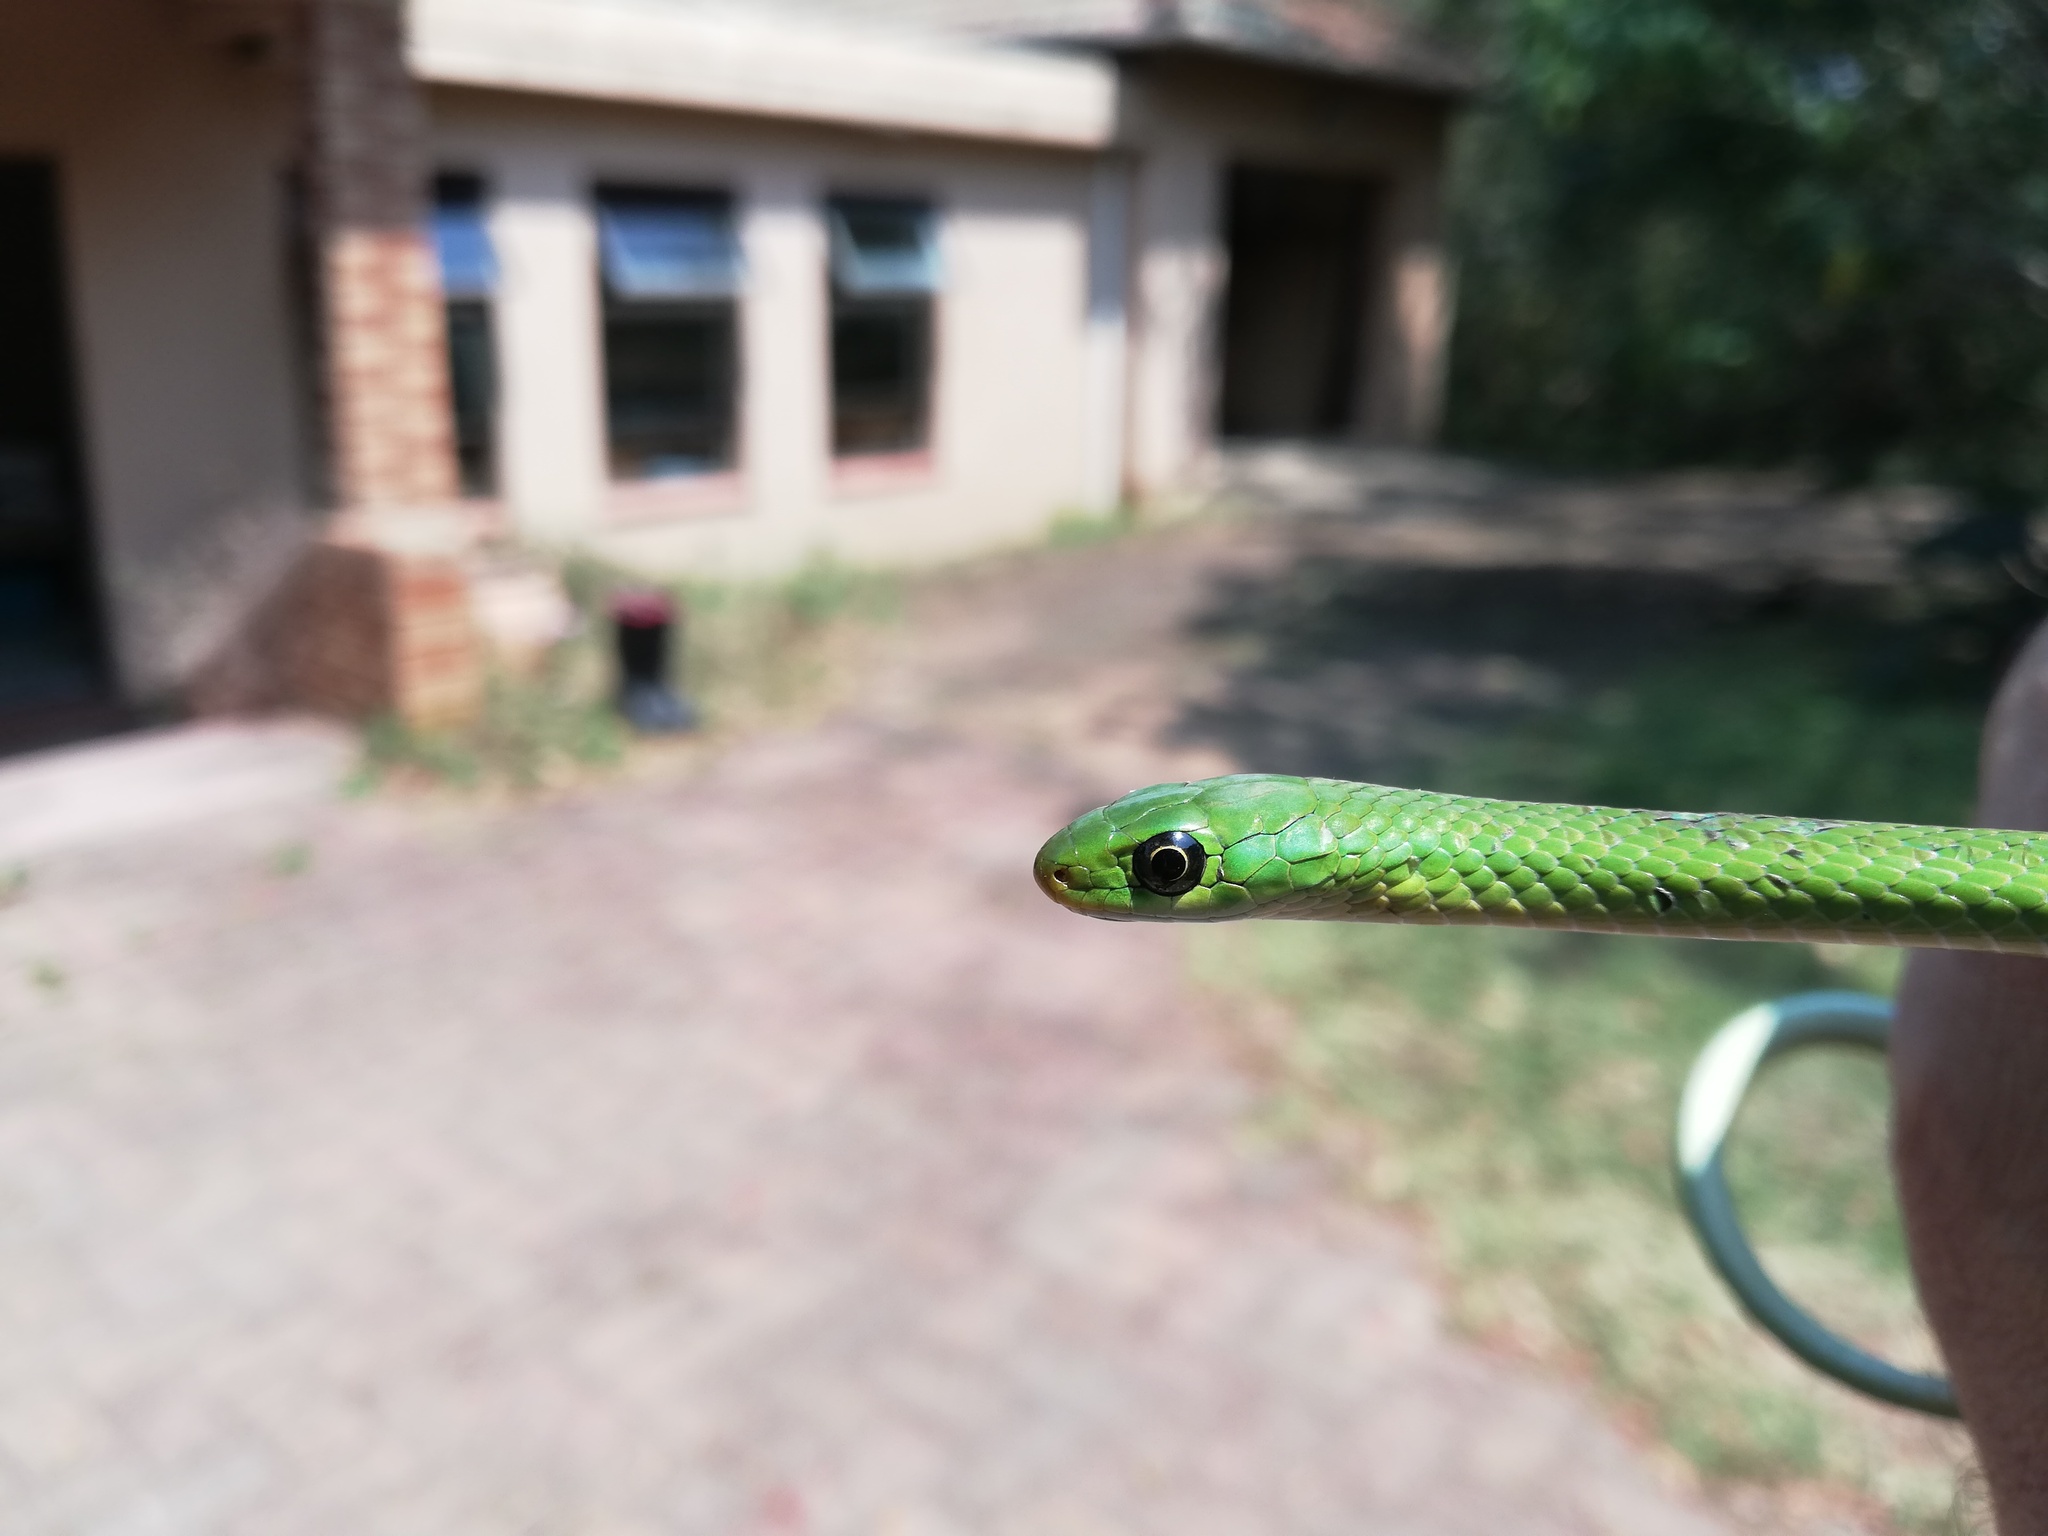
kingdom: Animalia
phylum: Chordata
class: Squamata
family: Colubridae
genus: Philothamnus
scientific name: Philothamnus hoplogaster
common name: Green water snake
